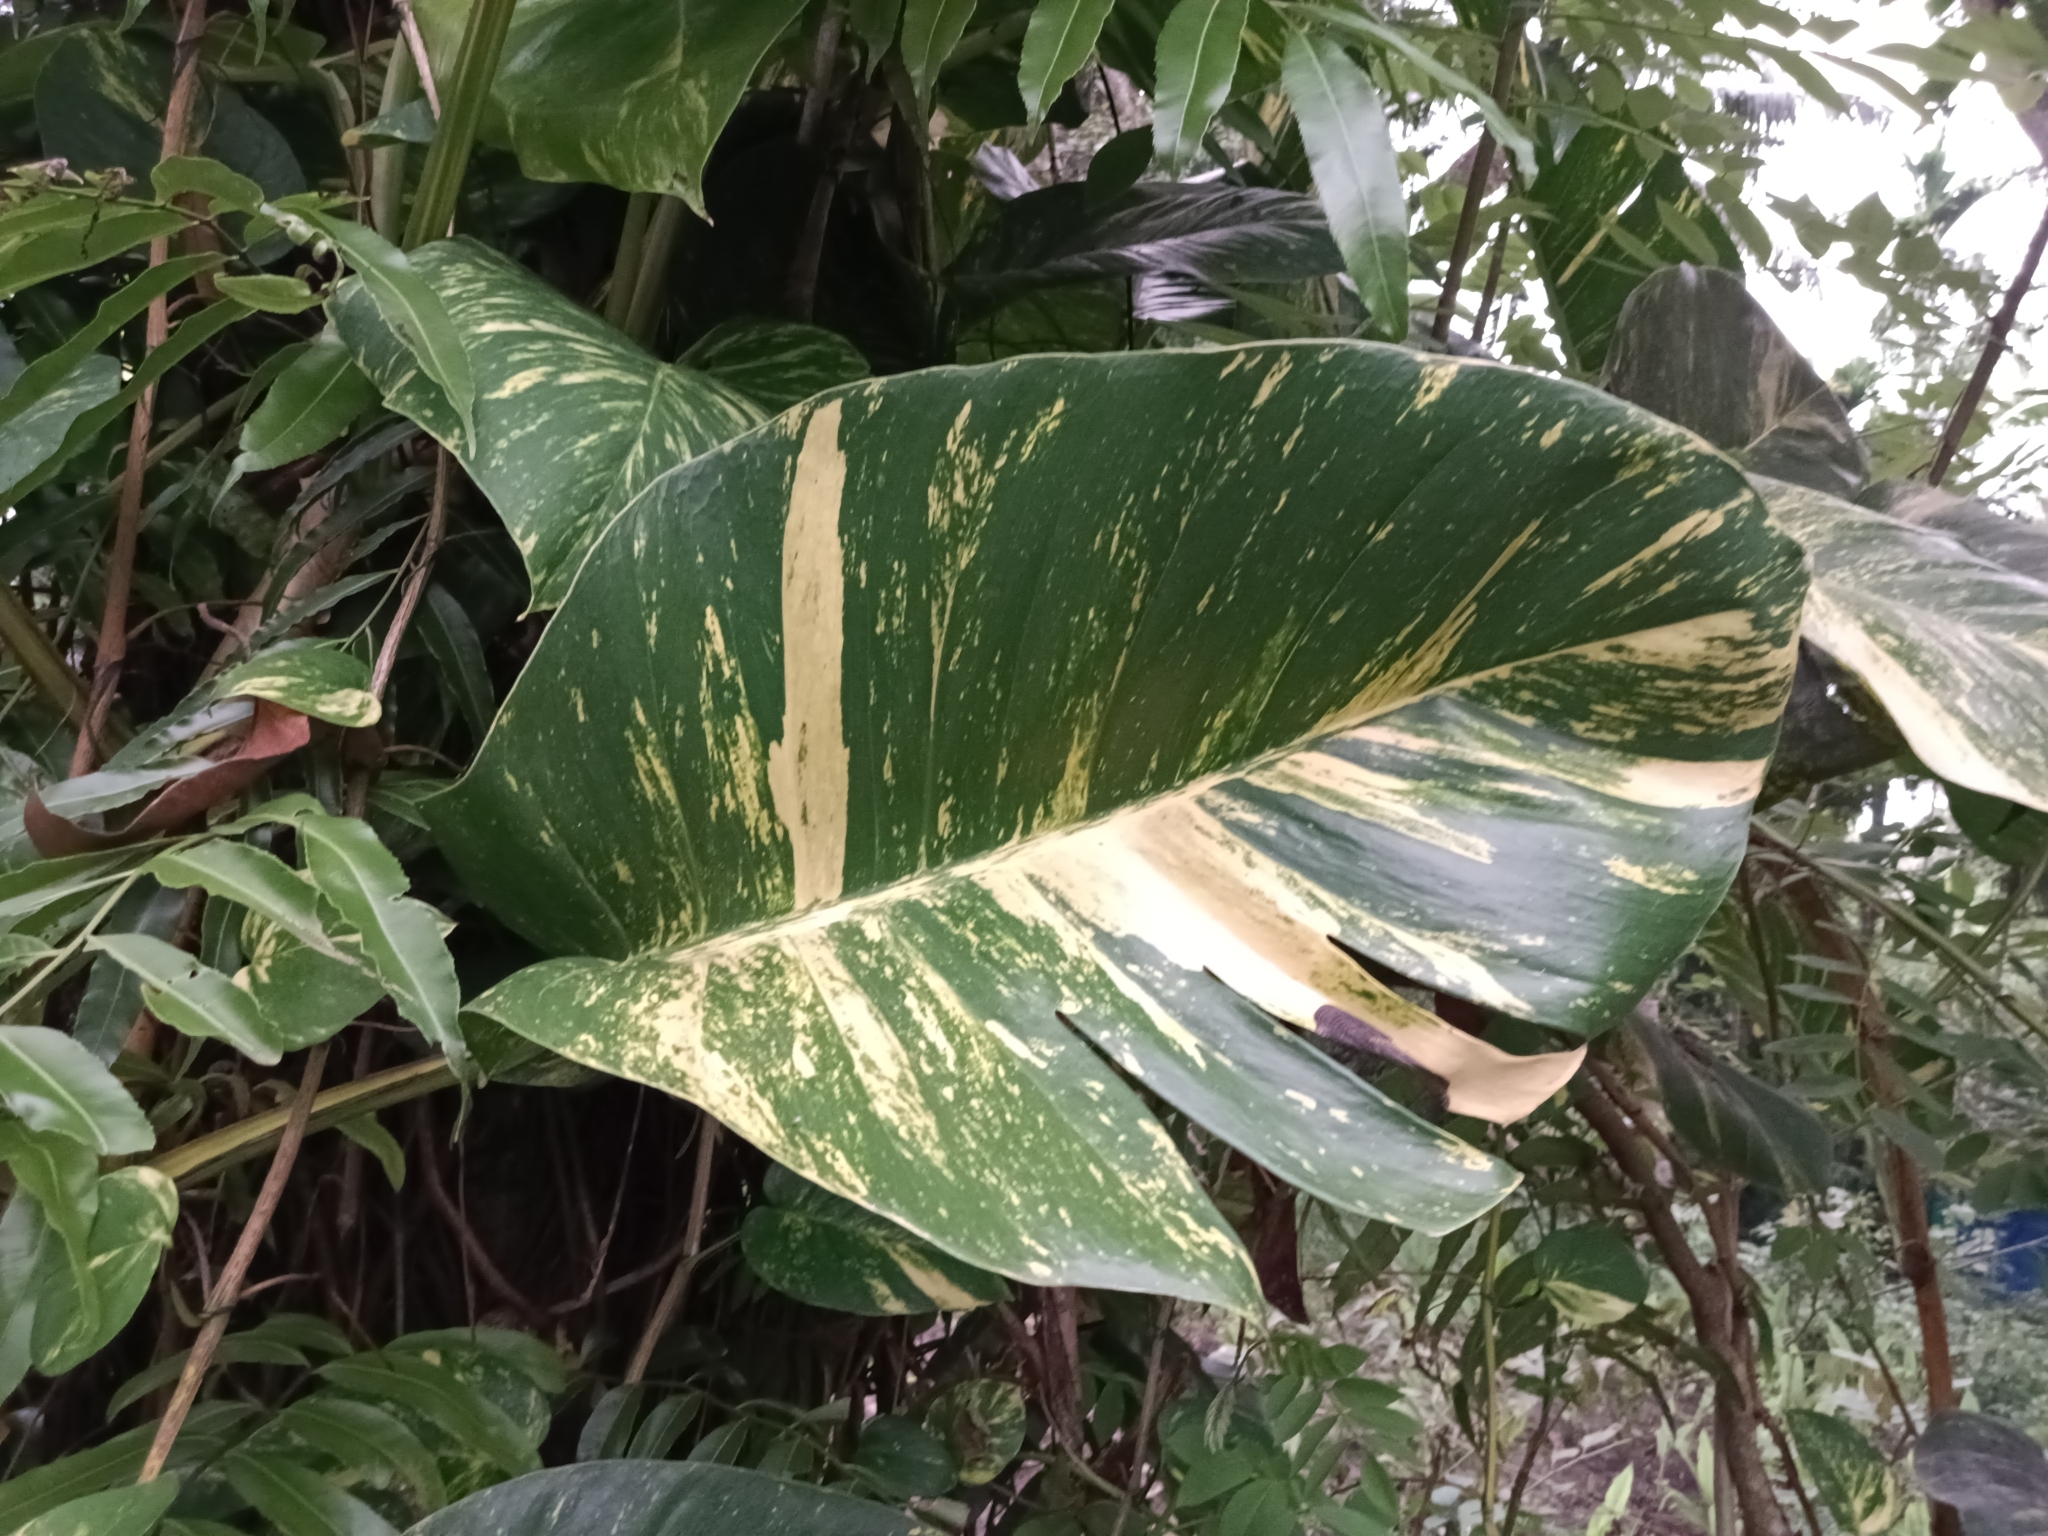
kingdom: Plantae
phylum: Tracheophyta
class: Liliopsida
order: Alismatales
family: Araceae
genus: Epipremnum
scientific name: Epipremnum aureum
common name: Golden hunter's-robe
